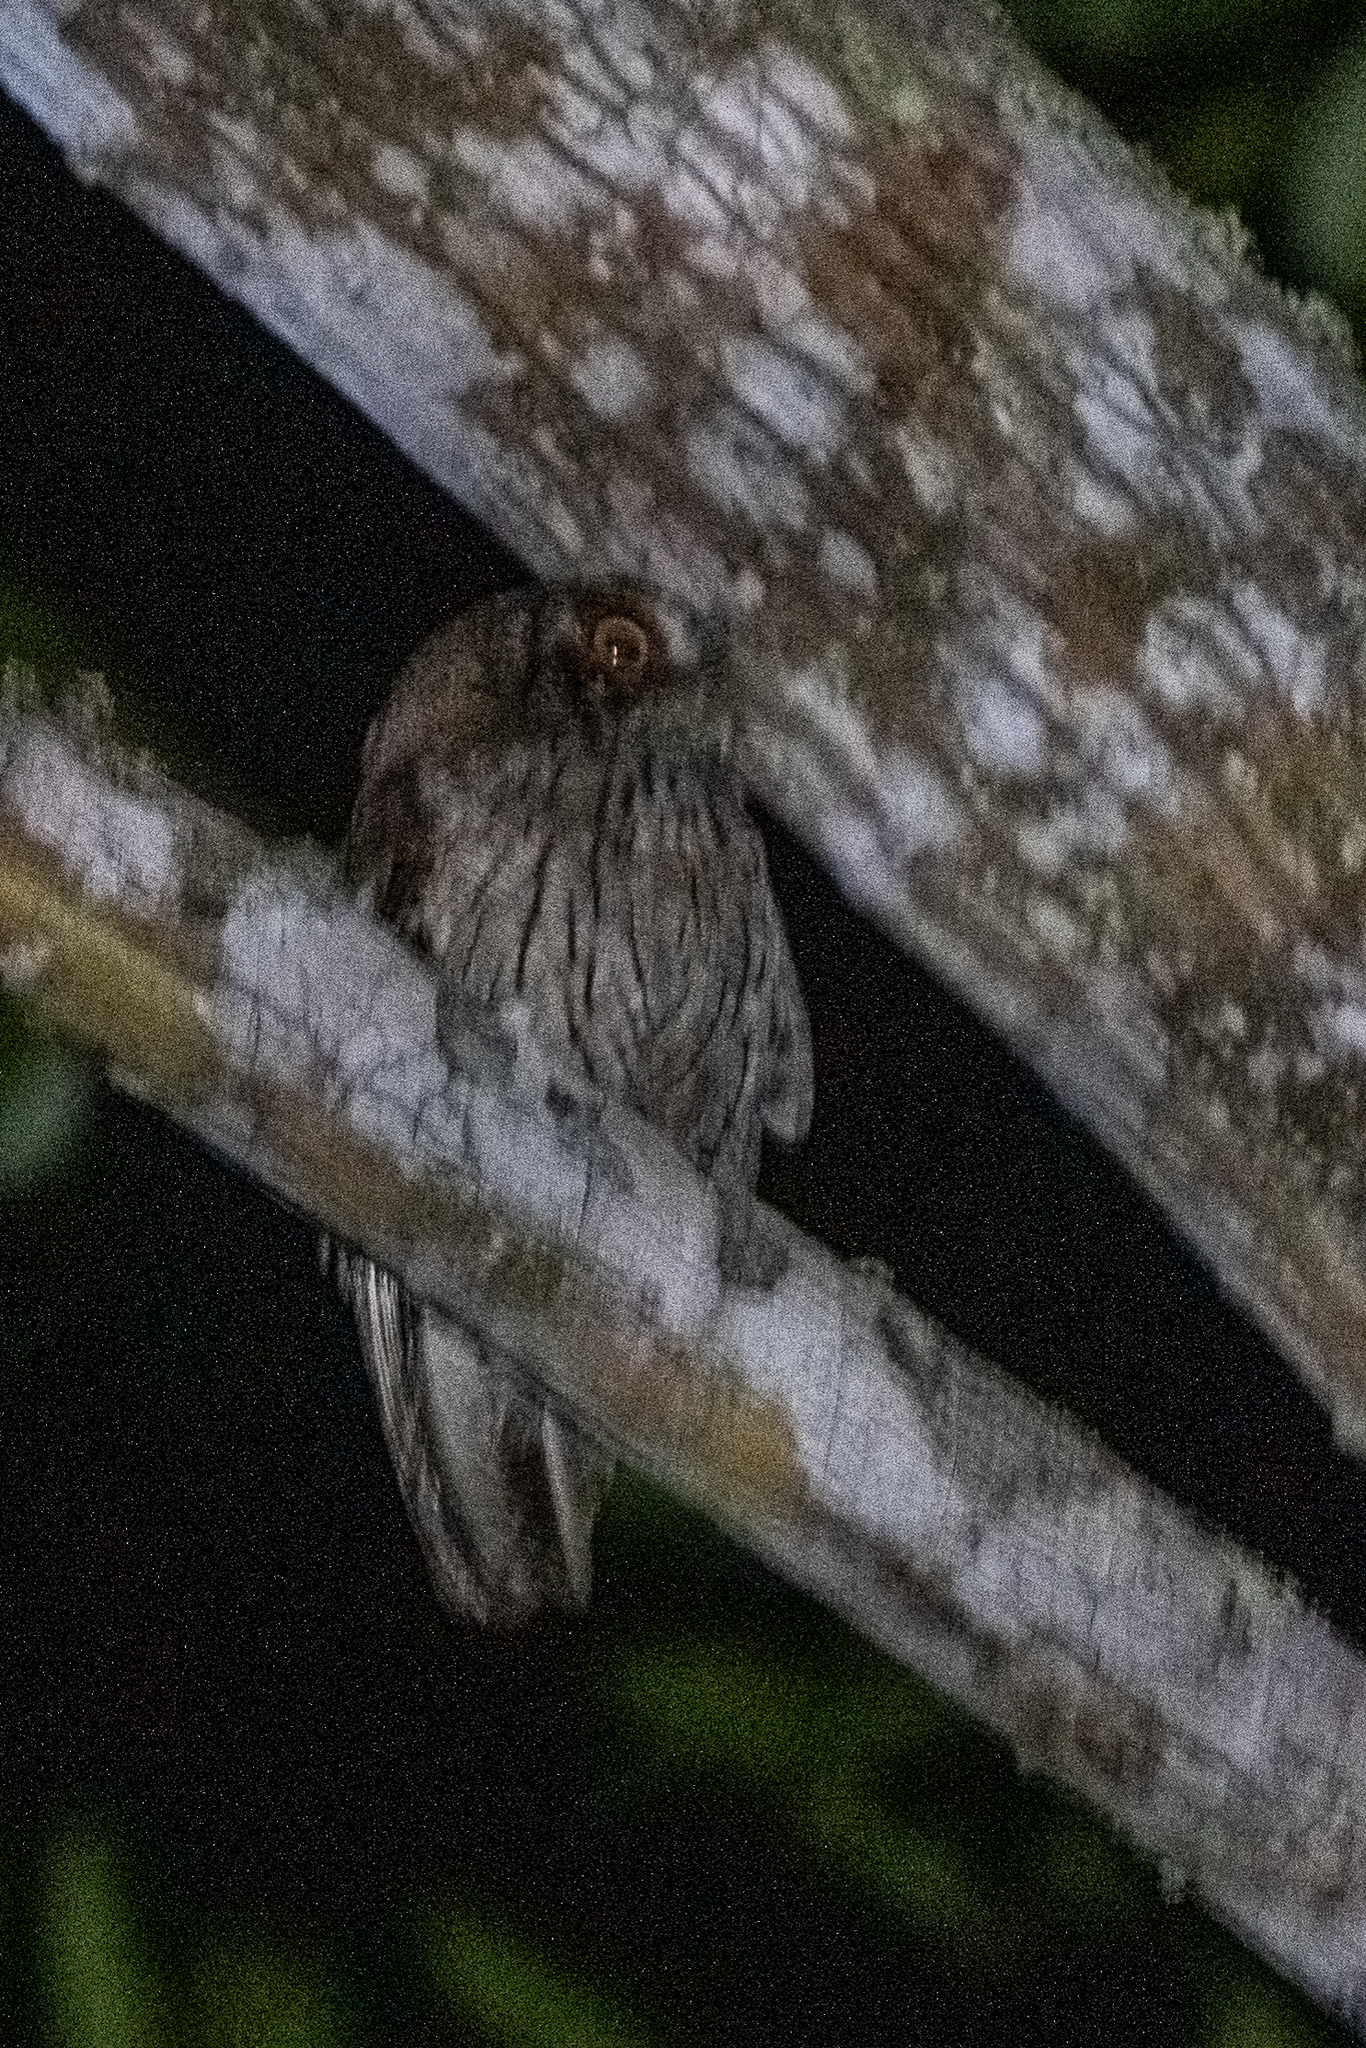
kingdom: Animalia
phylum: Chordata
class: Aves
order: Strigiformes
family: Strigidae
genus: Megascops
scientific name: Megascops choliba
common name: Tropical screech-owl
